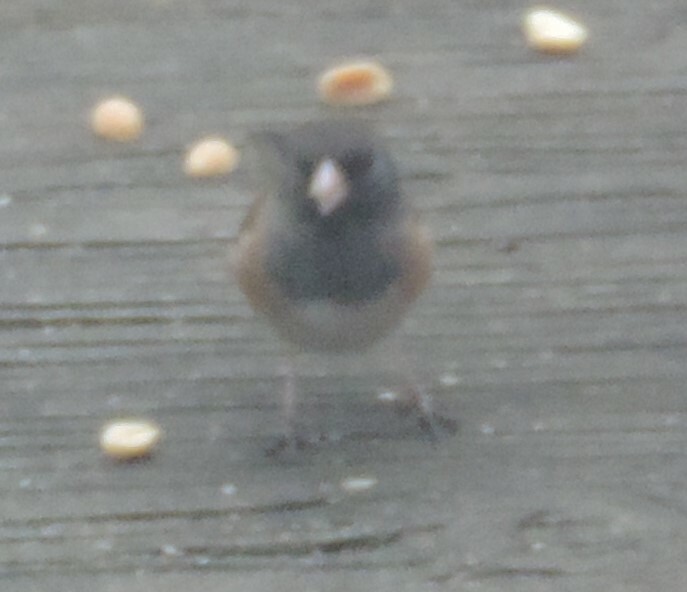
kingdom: Animalia
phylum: Chordata
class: Aves
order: Passeriformes
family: Passerellidae
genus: Junco
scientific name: Junco hyemalis
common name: Dark-eyed junco
